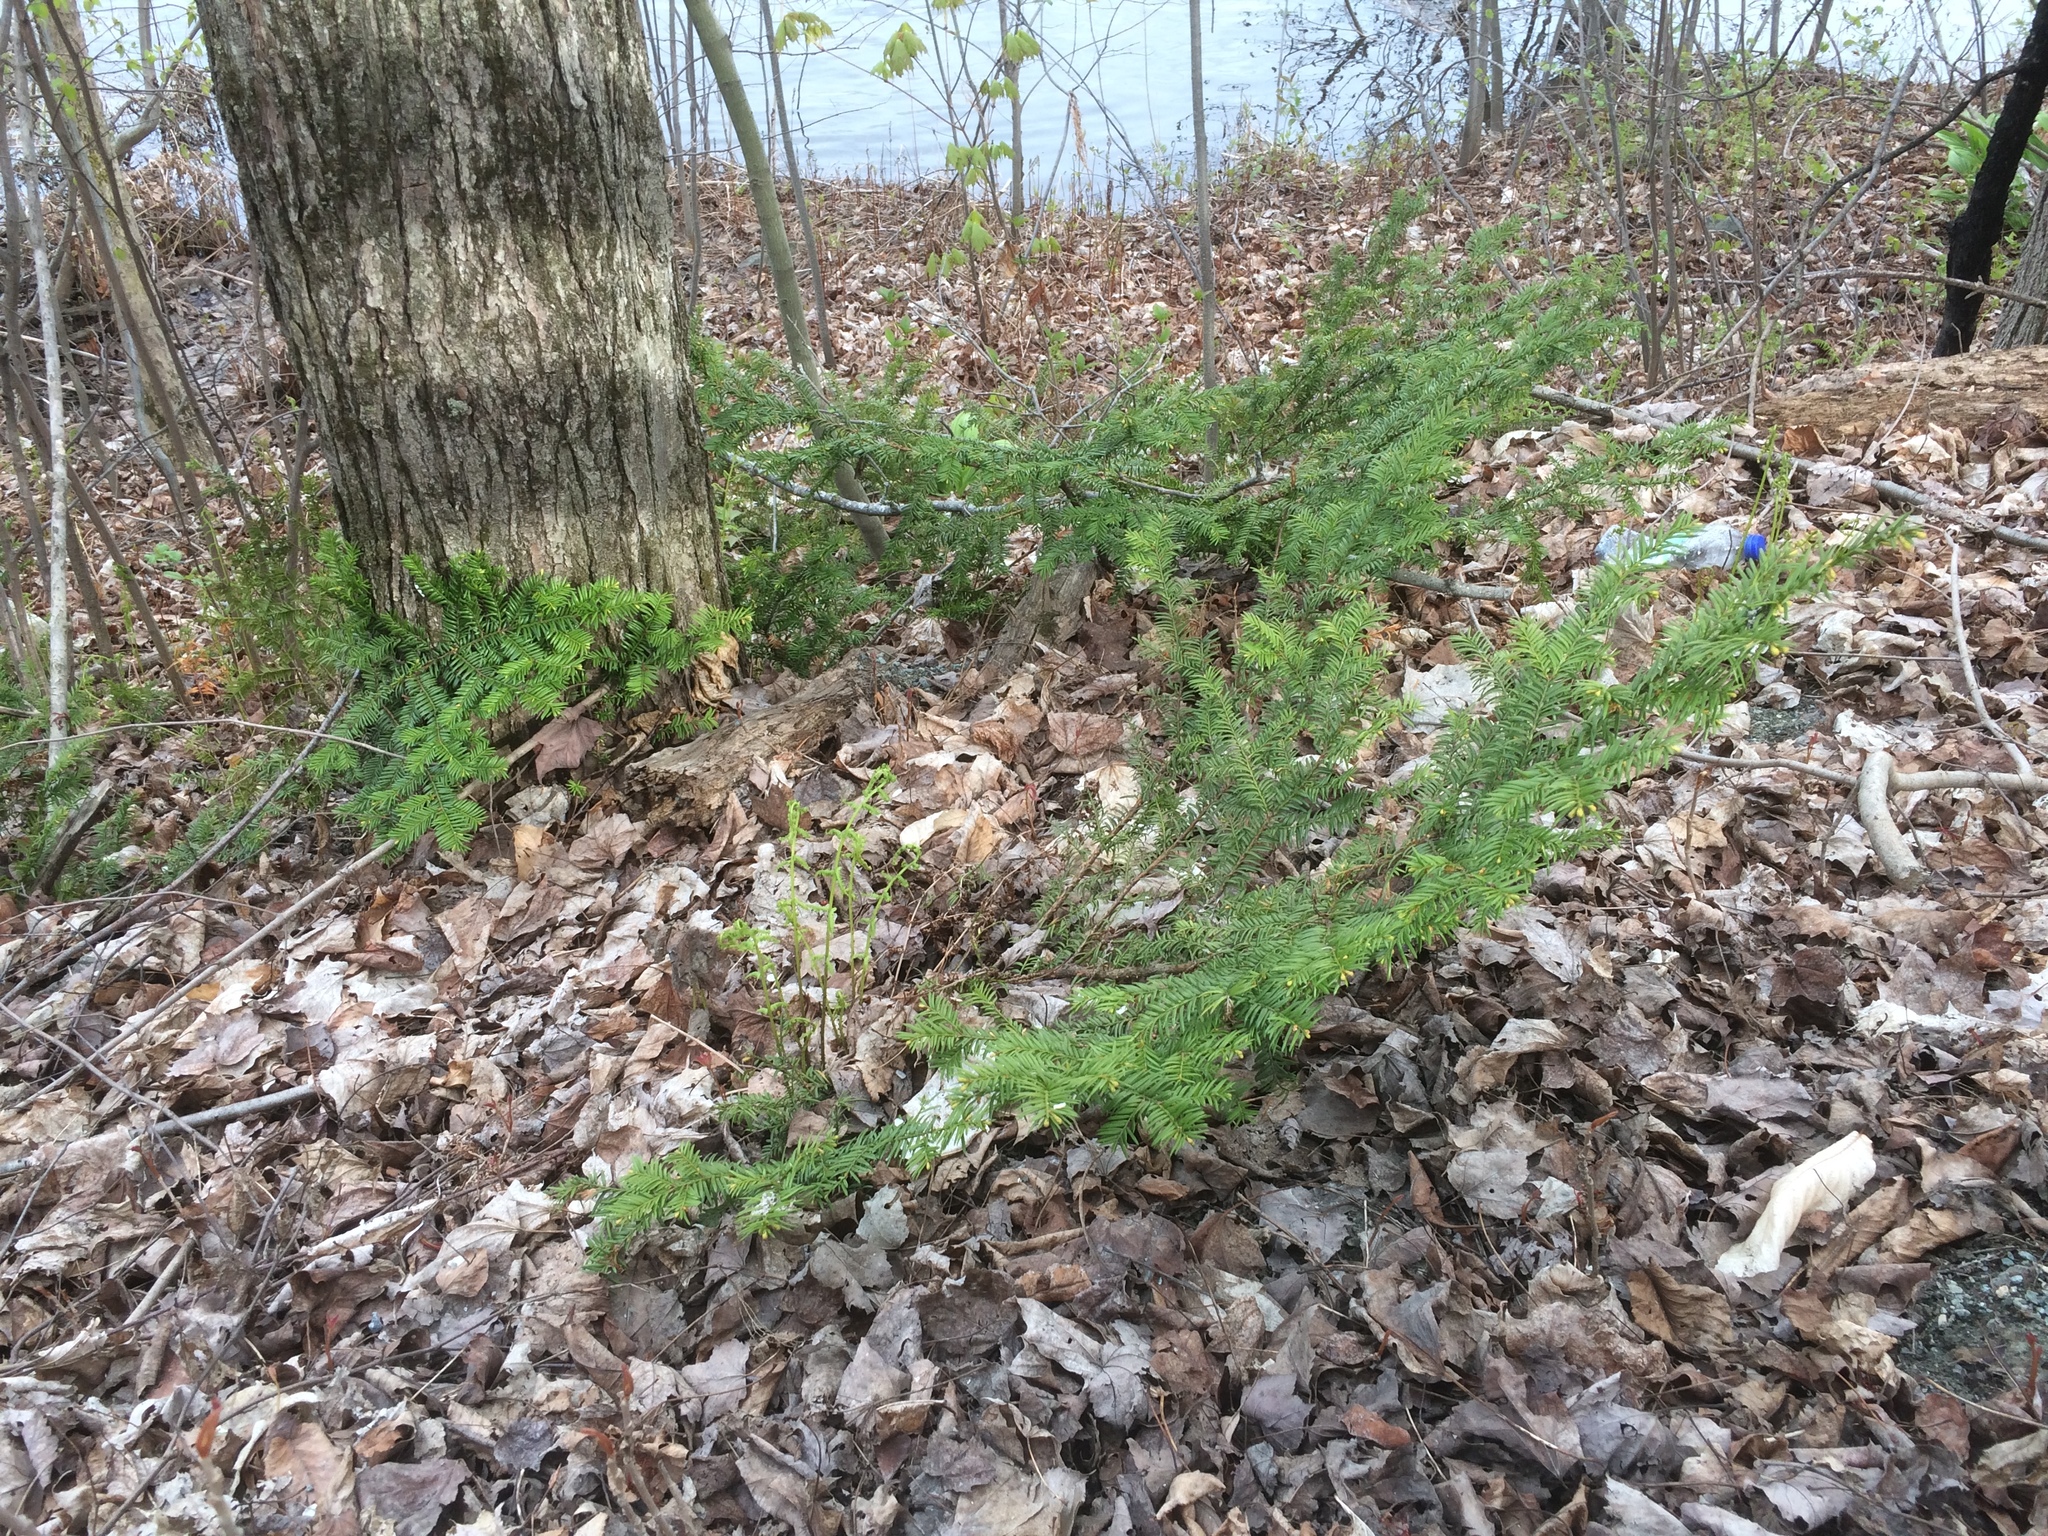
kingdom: Plantae
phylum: Tracheophyta
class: Pinopsida
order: Pinales
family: Taxaceae
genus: Taxus
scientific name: Taxus canadensis
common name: American yew
